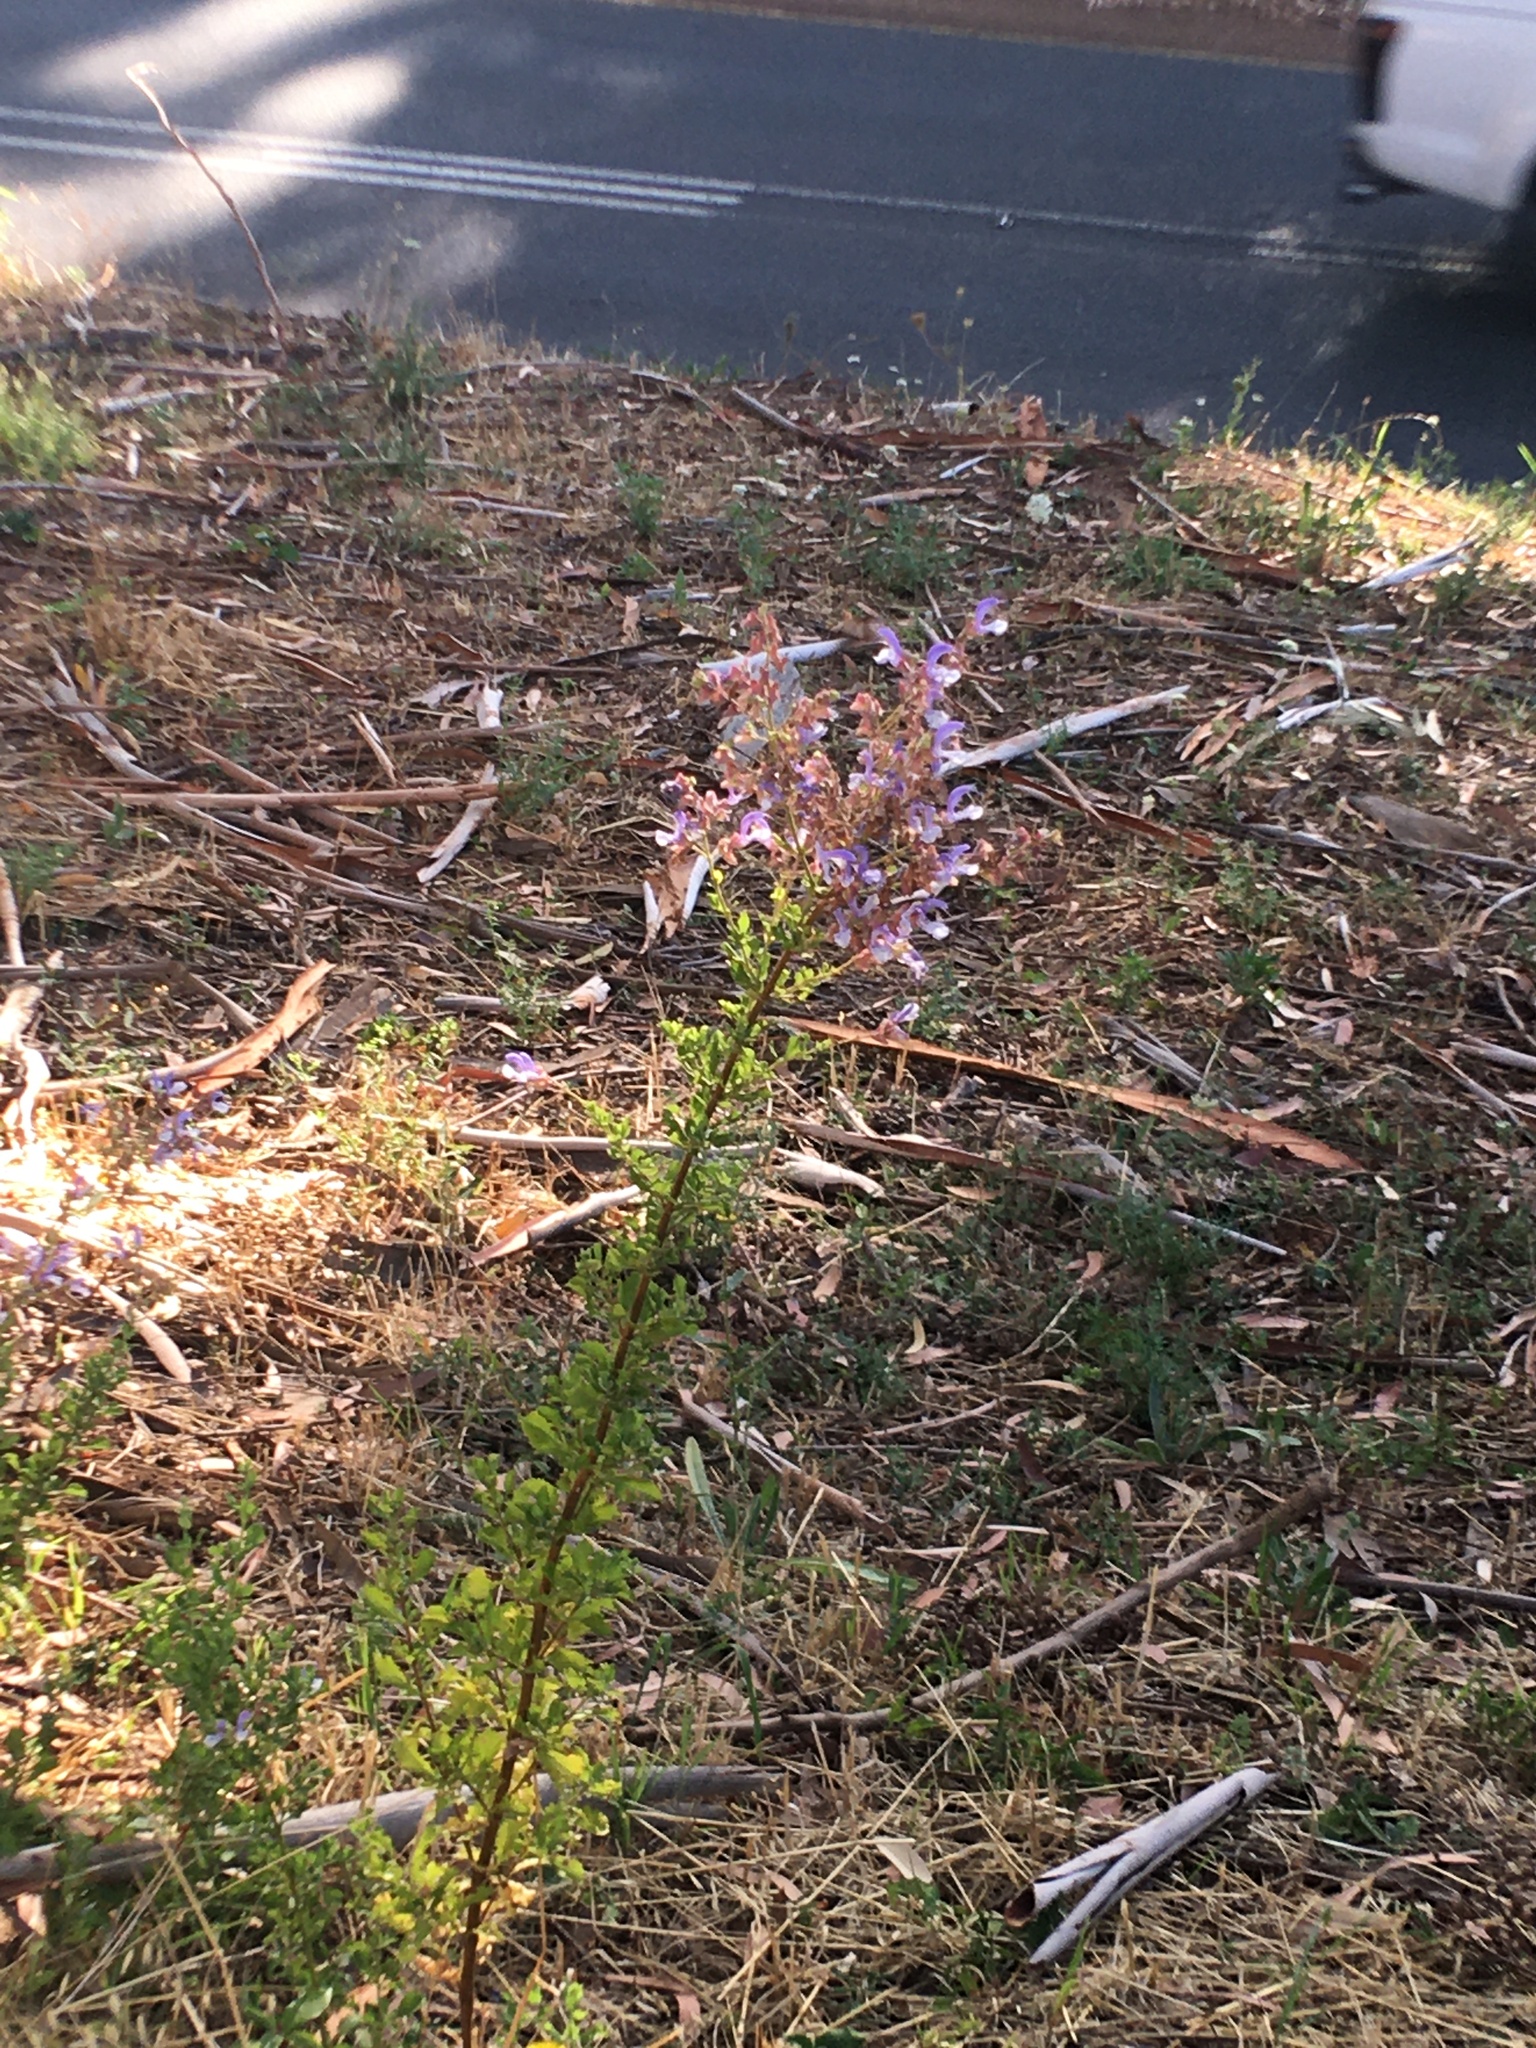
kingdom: Plantae
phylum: Tracheophyta
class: Magnoliopsida
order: Lamiales
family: Lamiaceae
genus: Salvia
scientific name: Salvia chamelaeagnea
